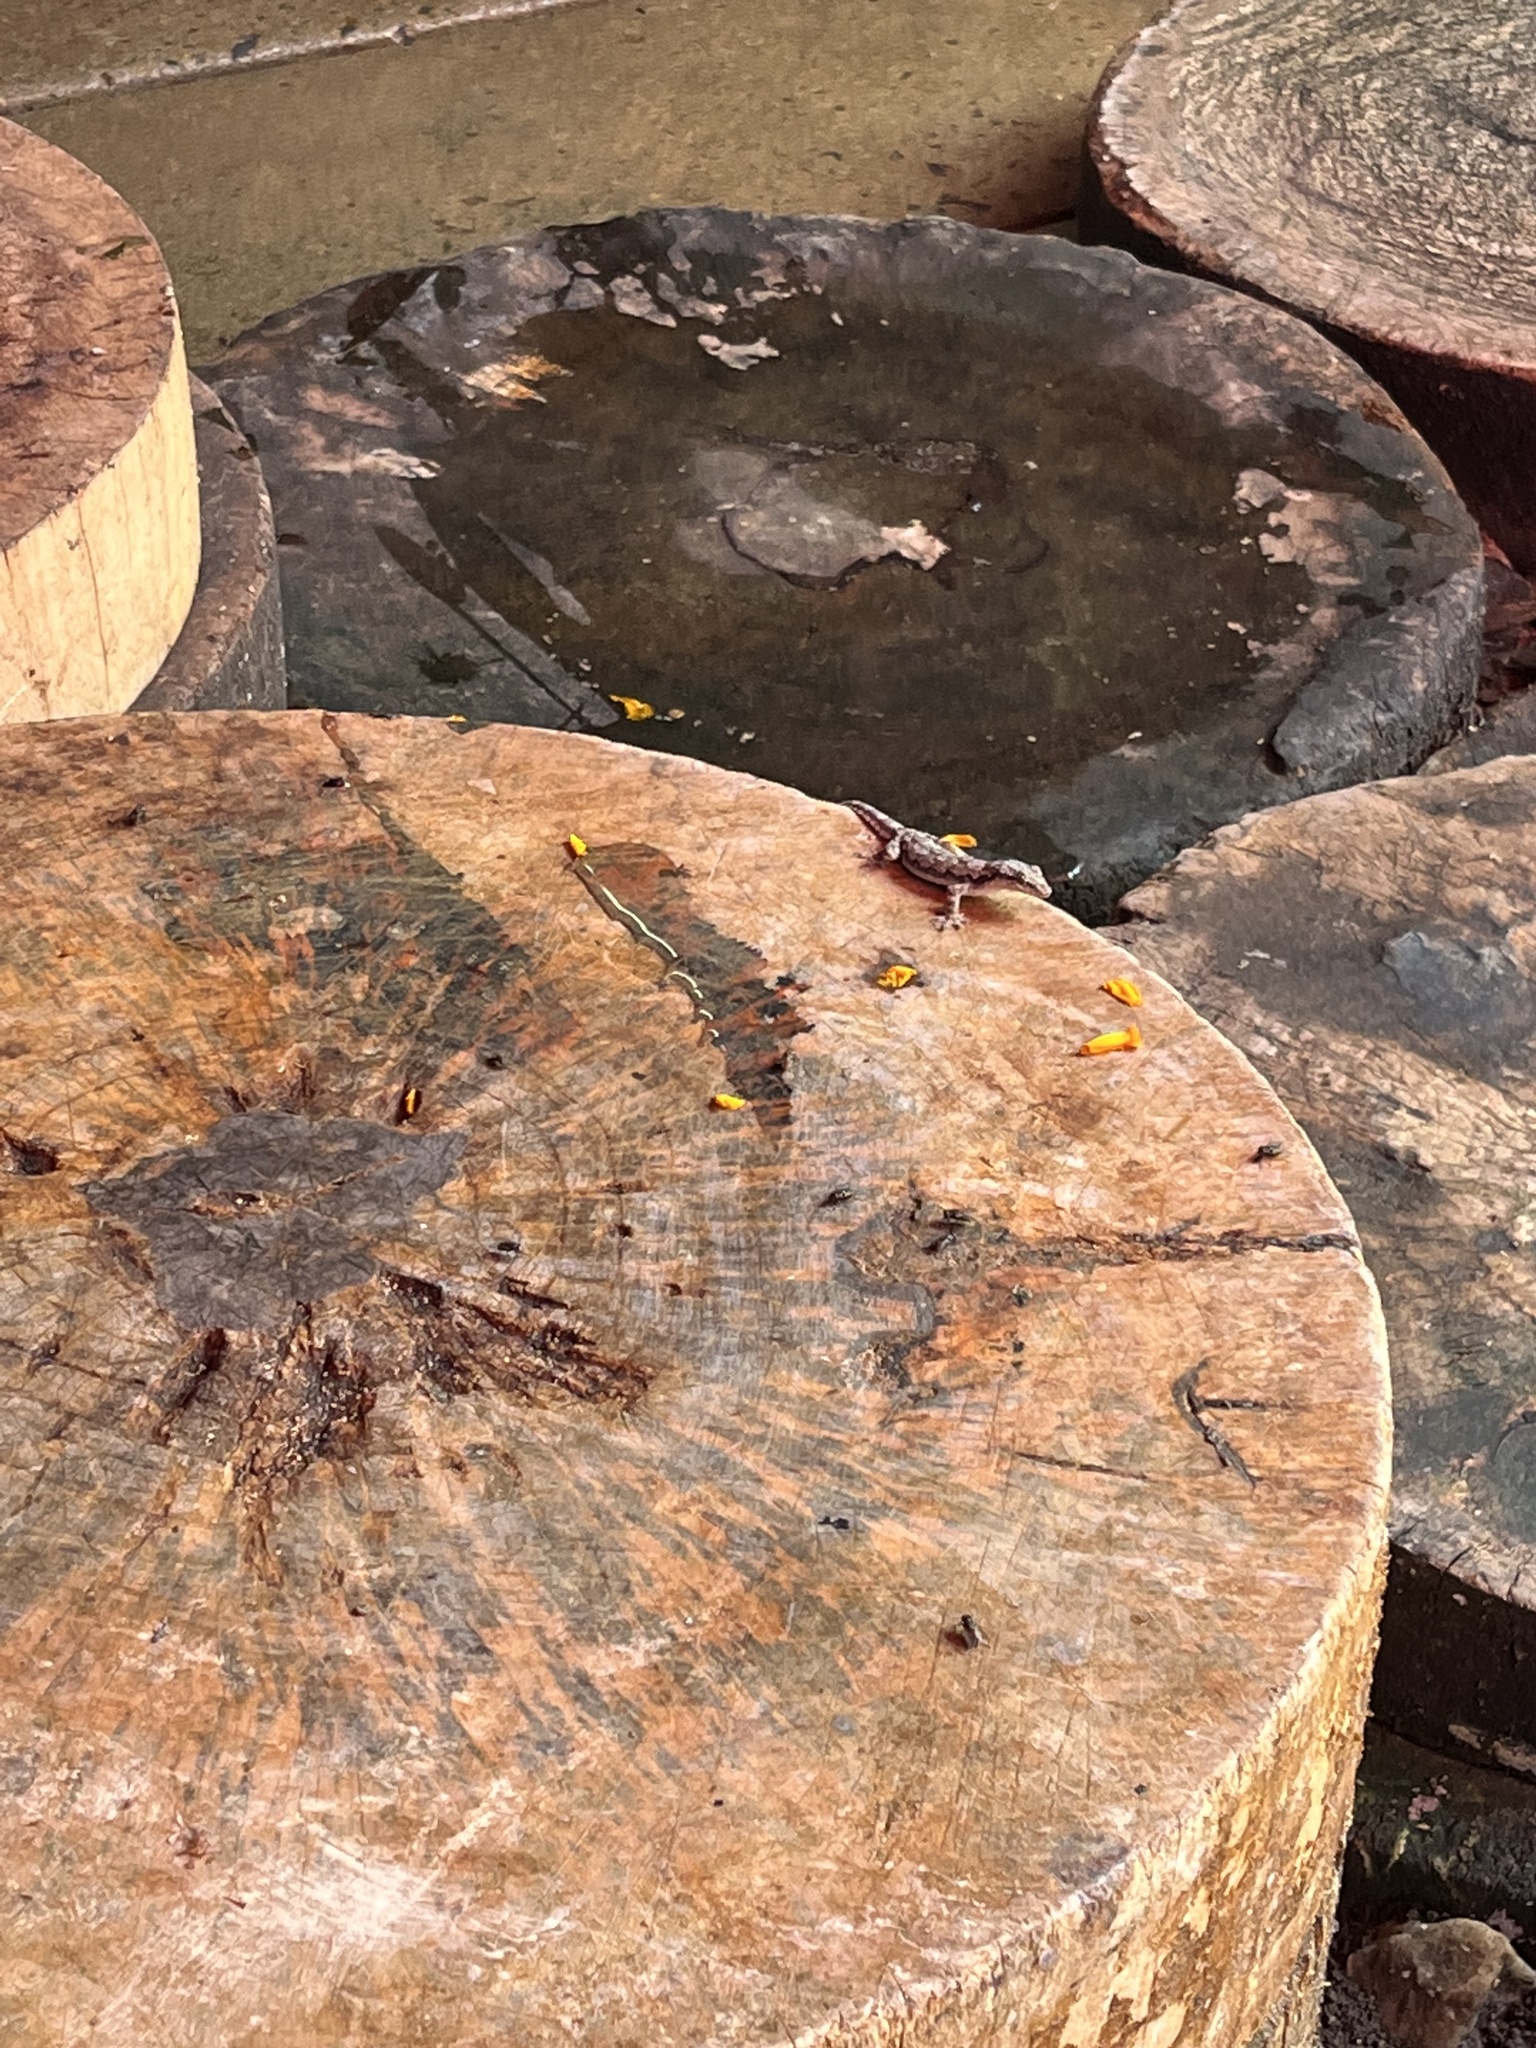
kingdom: Animalia
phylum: Chordata
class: Squamata
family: Gekkonidae
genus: Hemidactylus
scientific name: Hemidactylus platyurus
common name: Flat-tailed house gecko
